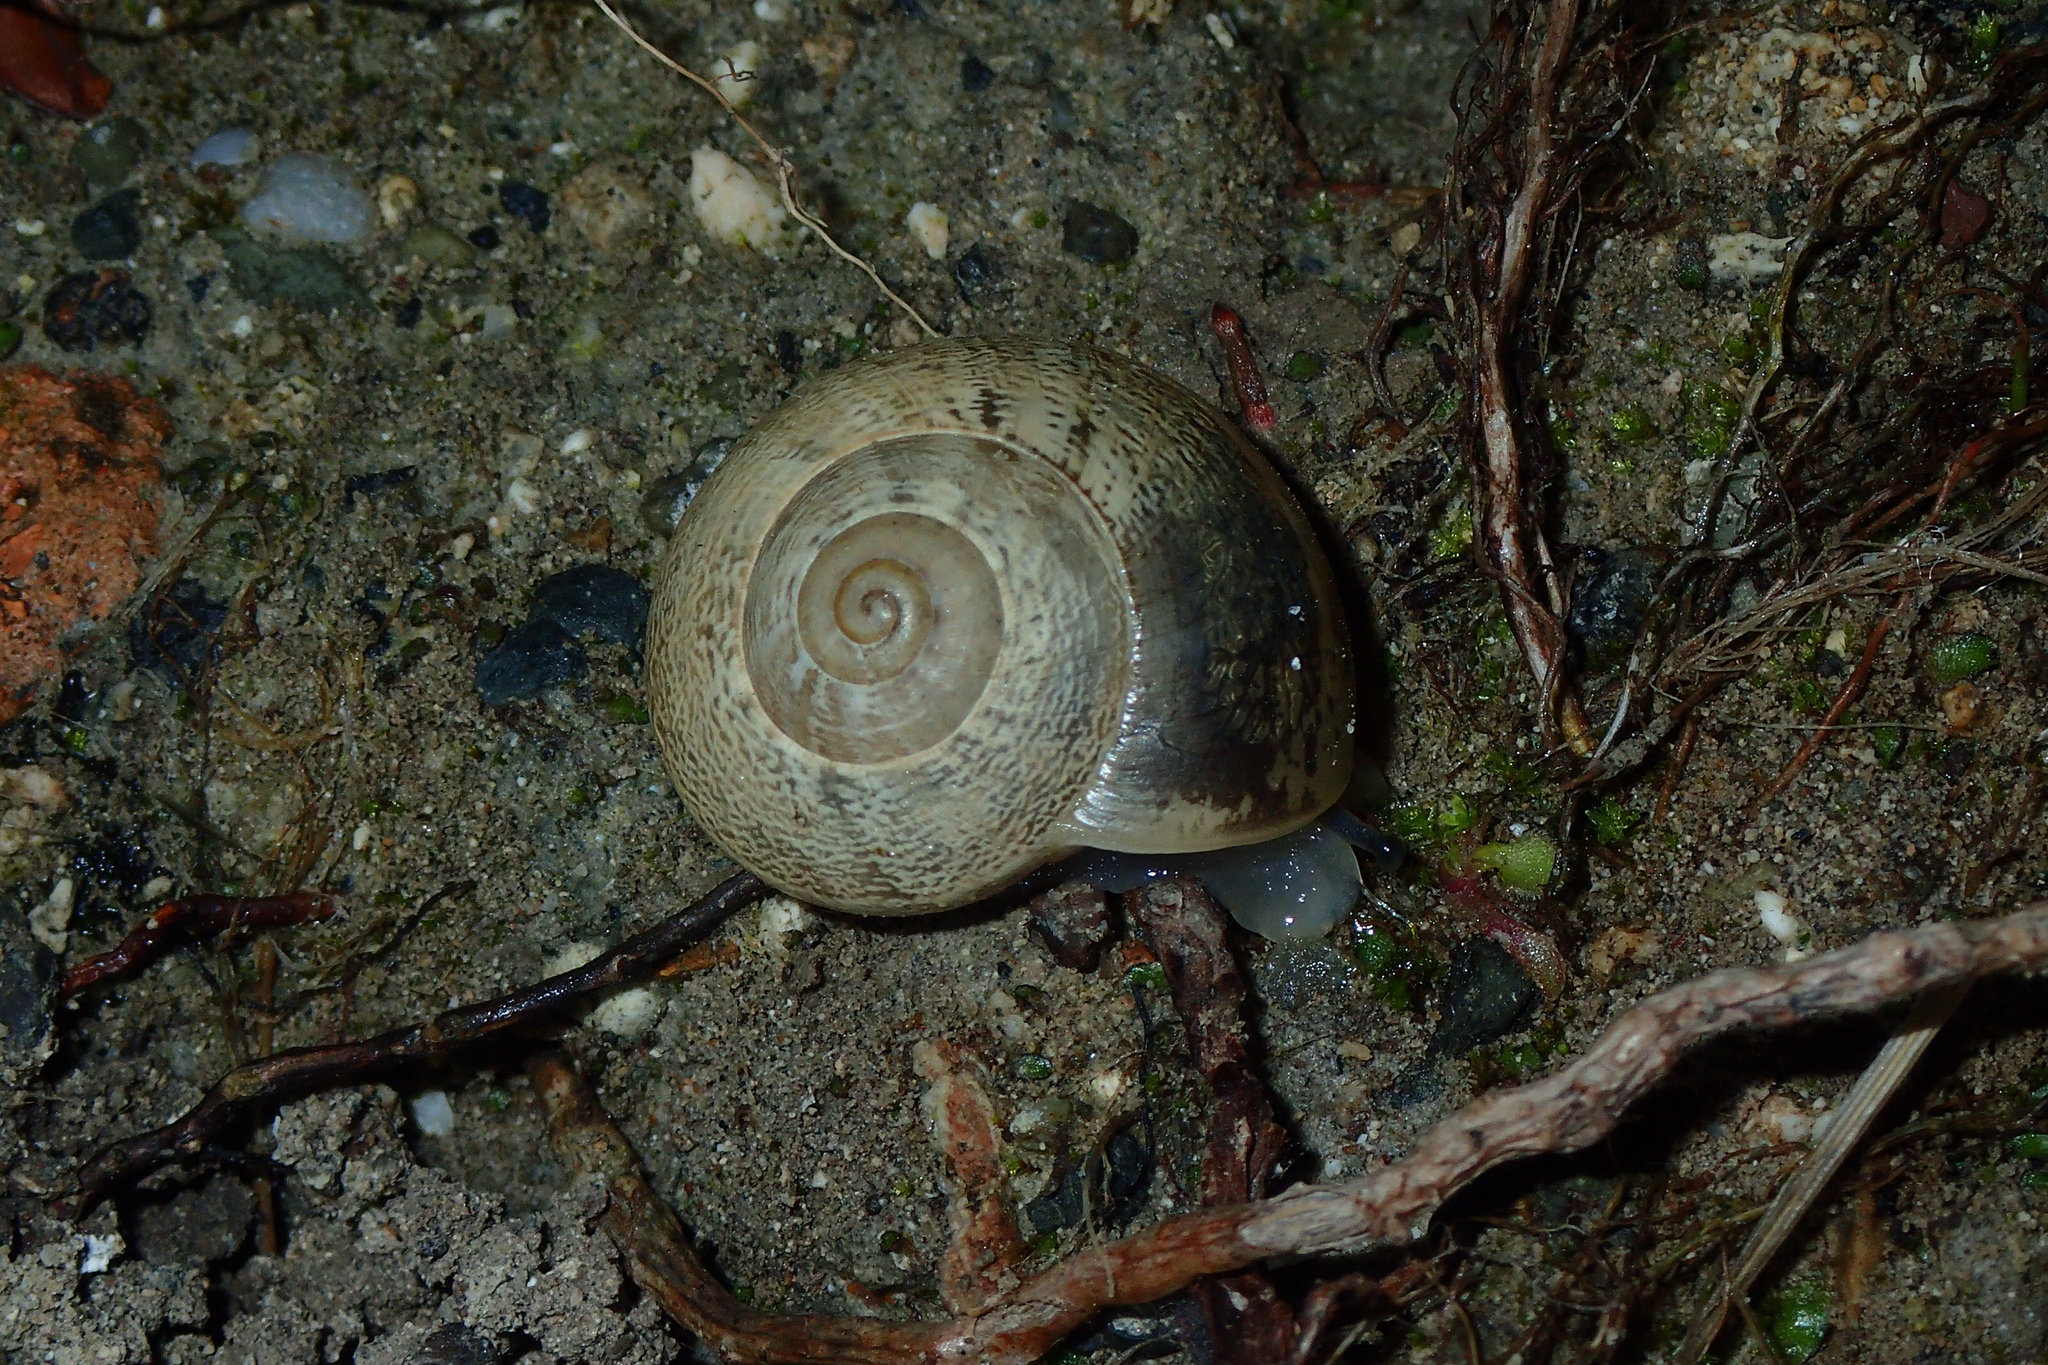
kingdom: Animalia
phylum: Mollusca
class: Gastropoda
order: Stylommatophora
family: Helicidae
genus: Eobania
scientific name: Eobania vermiculata
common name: Chocolateband snail
